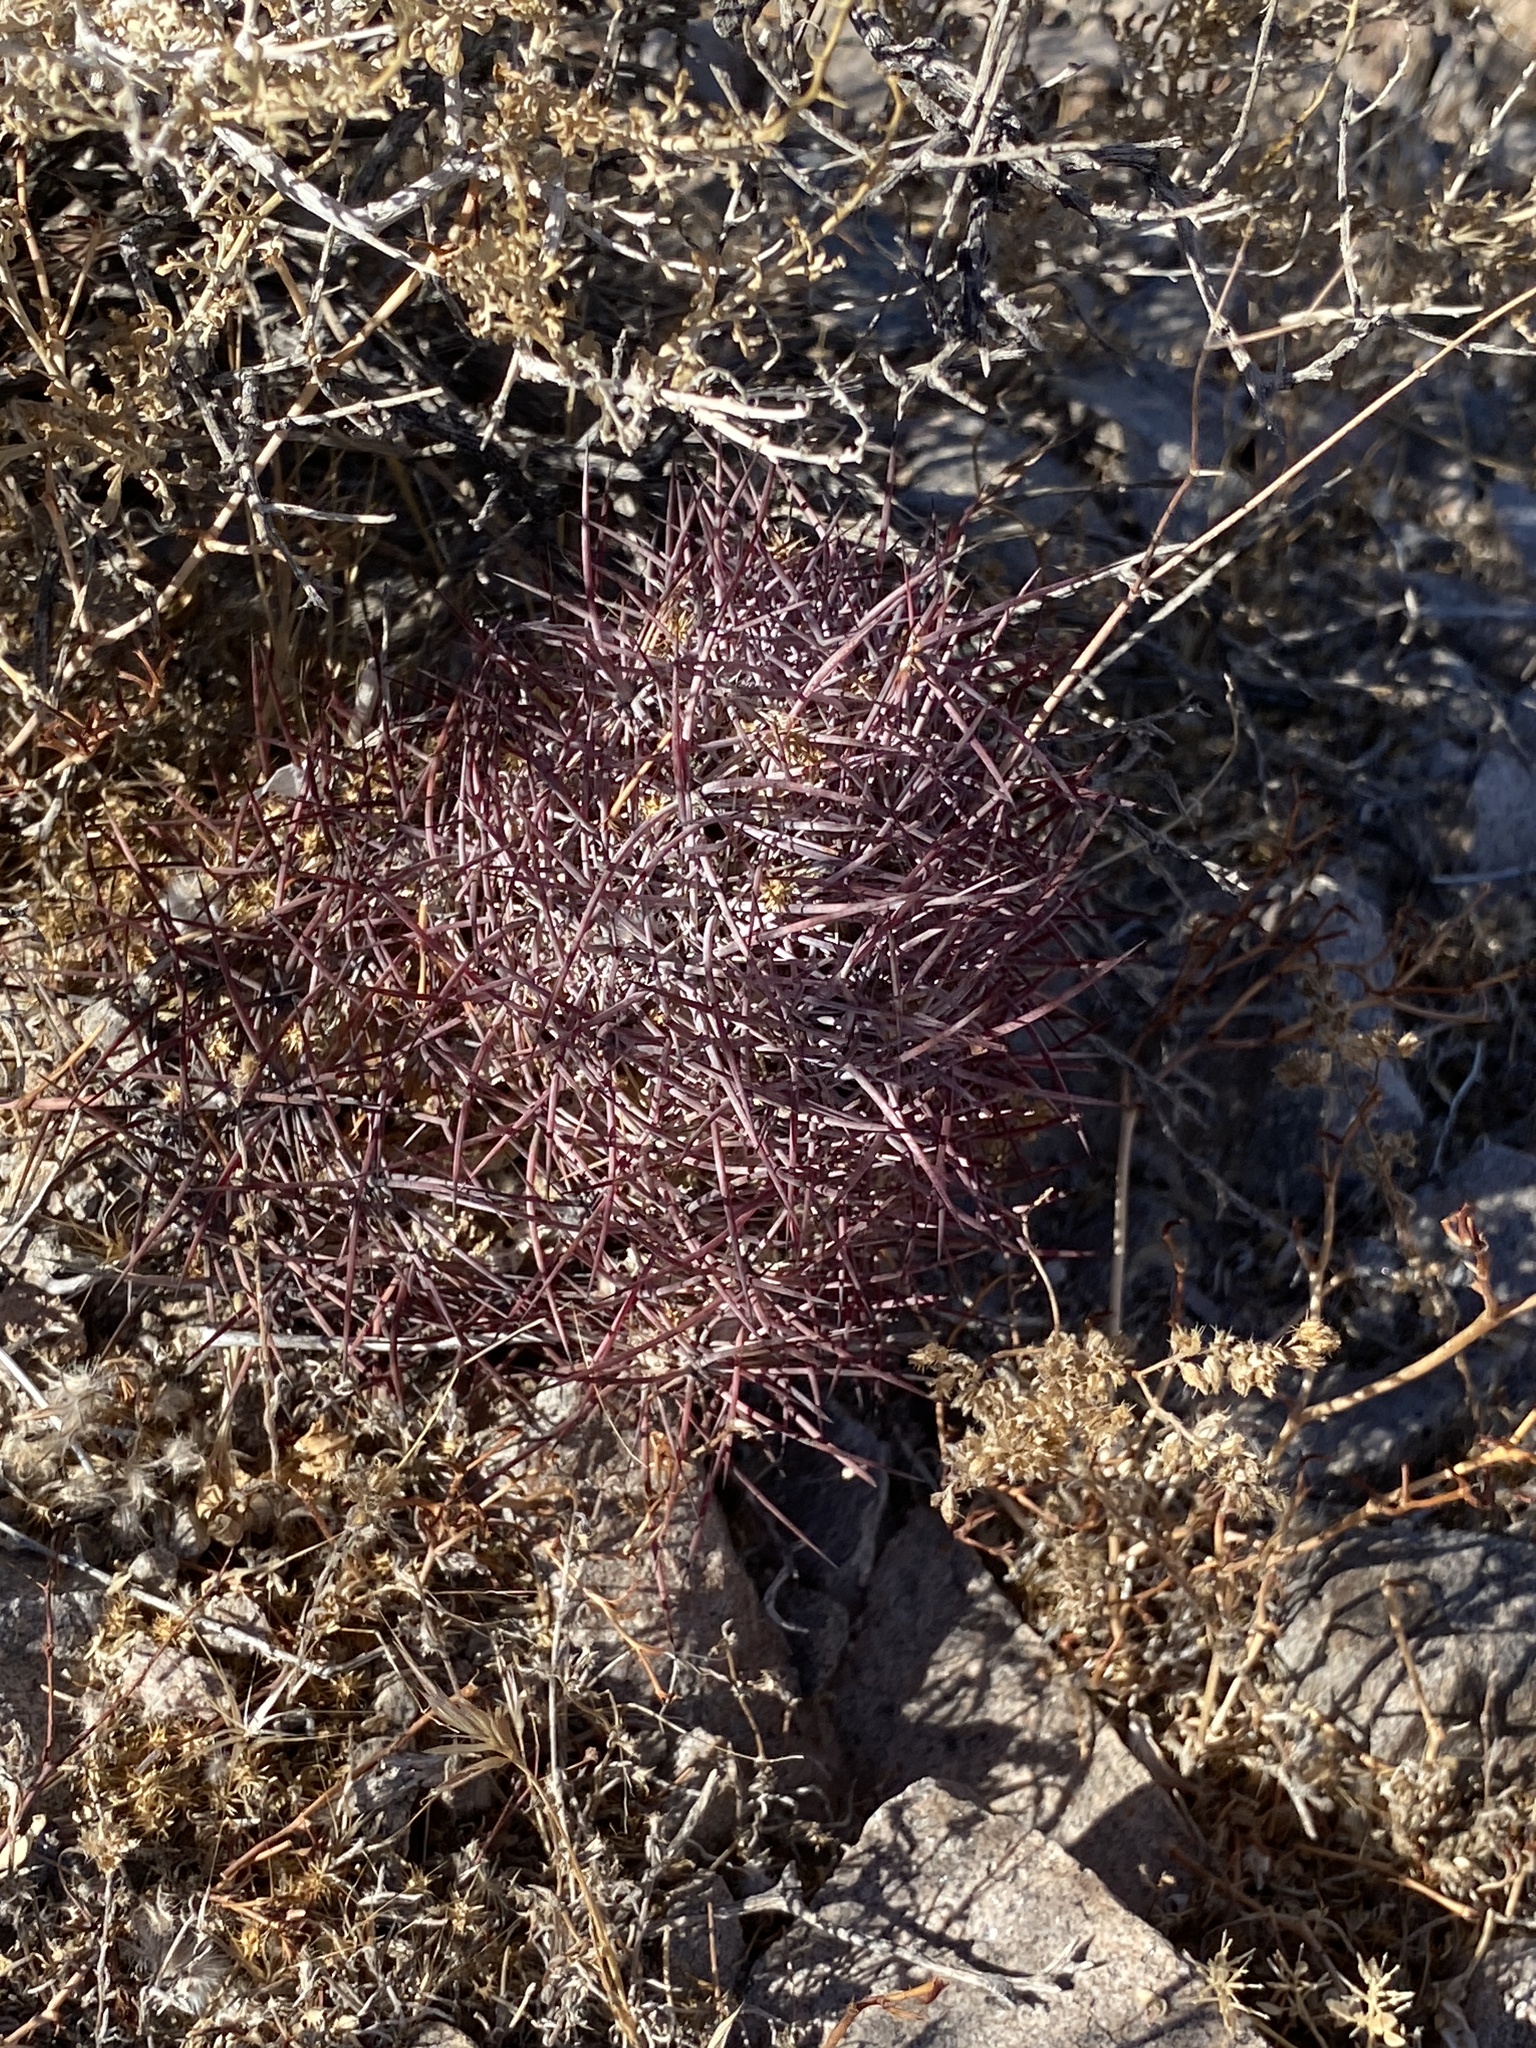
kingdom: Plantae
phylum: Tracheophyta
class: Magnoliopsida
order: Caryophyllales
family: Cactaceae
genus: Sclerocactus
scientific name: Sclerocactus johnsonii
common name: Eight-spine fishhook cactus
